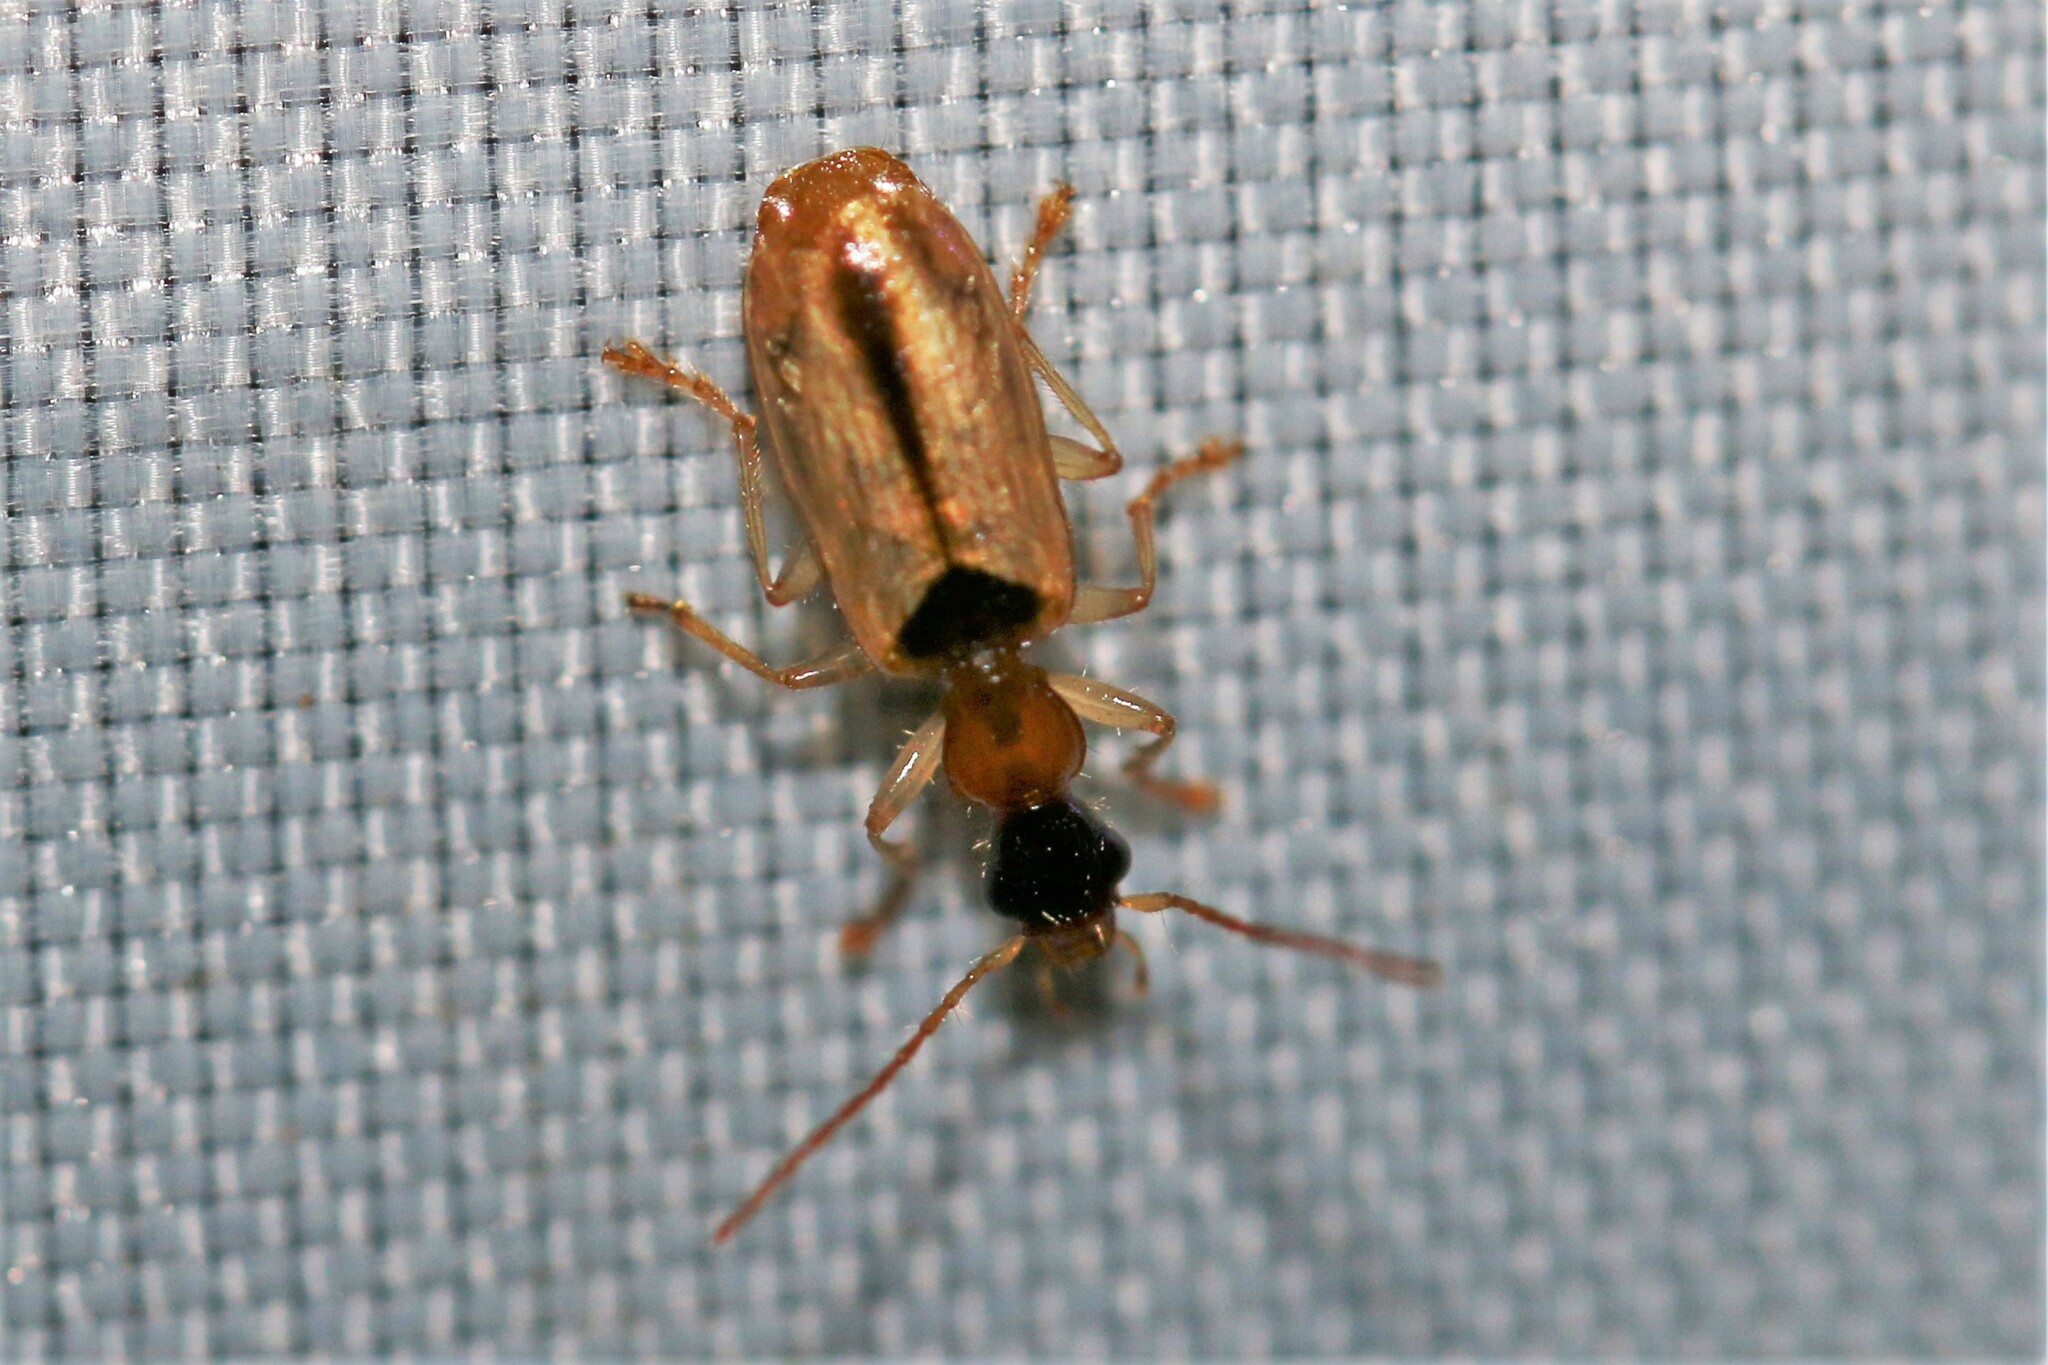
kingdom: Animalia
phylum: Arthropoda
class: Insecta
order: Coleoptera
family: Carabidae
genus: Demetrias
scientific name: Demetrias atricapillus
